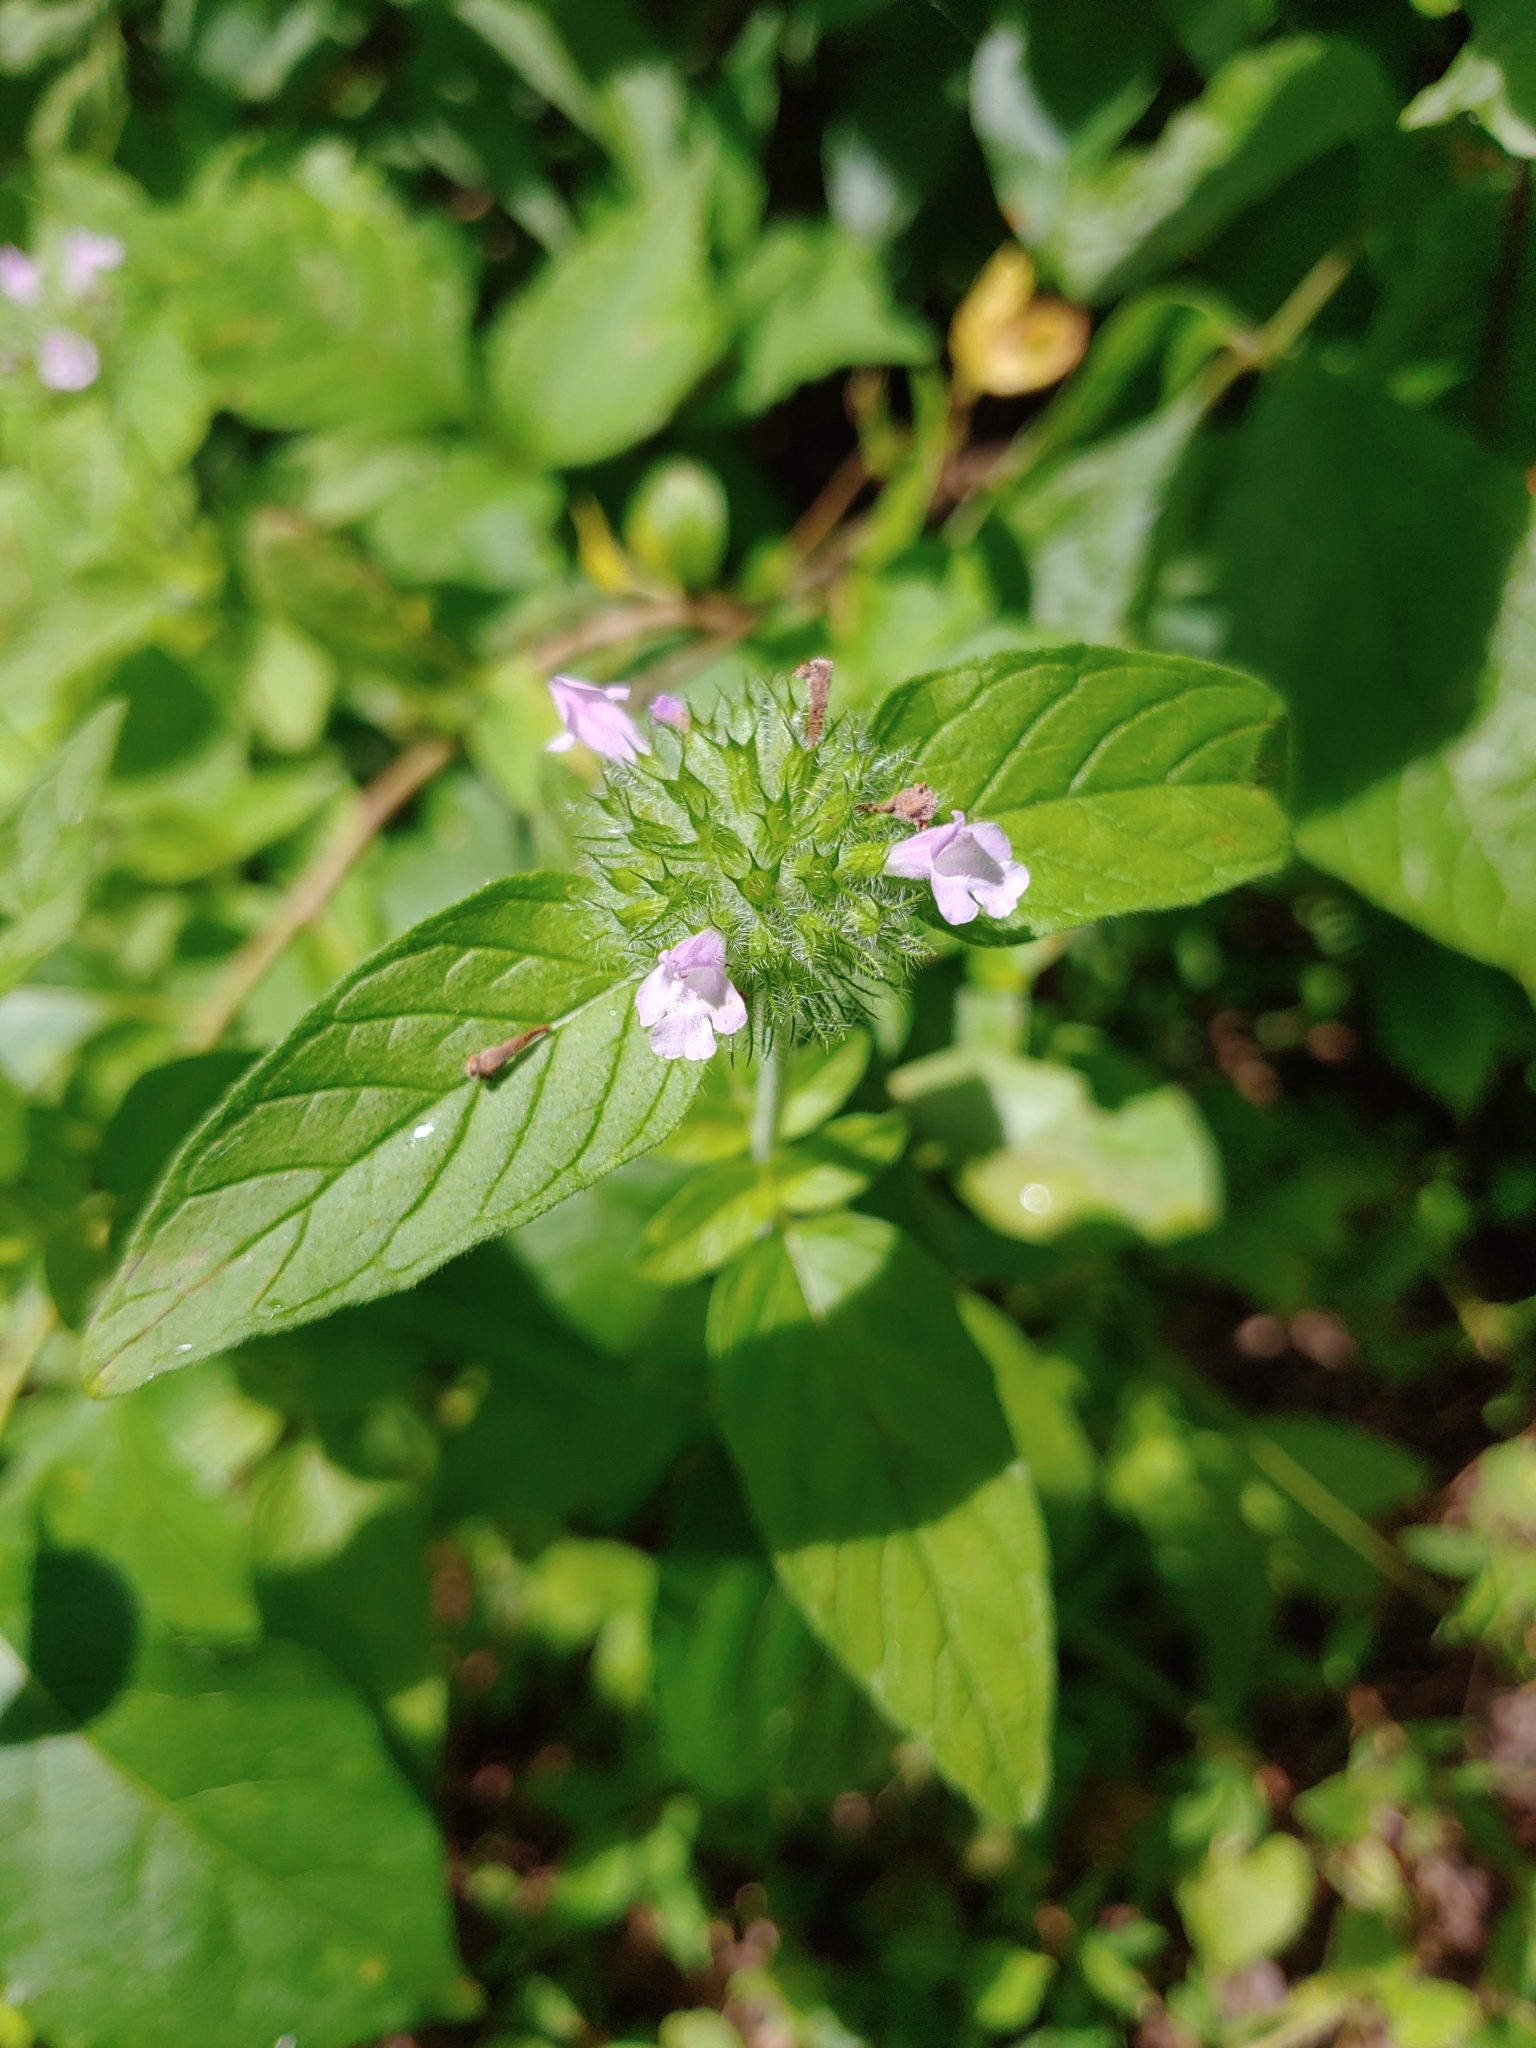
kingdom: Plantae
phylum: Tracheophyta
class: Magnoliopsida
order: Lamiales
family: Lamiaceae
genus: Clinopodium
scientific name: Clinopodium vulgare
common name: Wild basil
